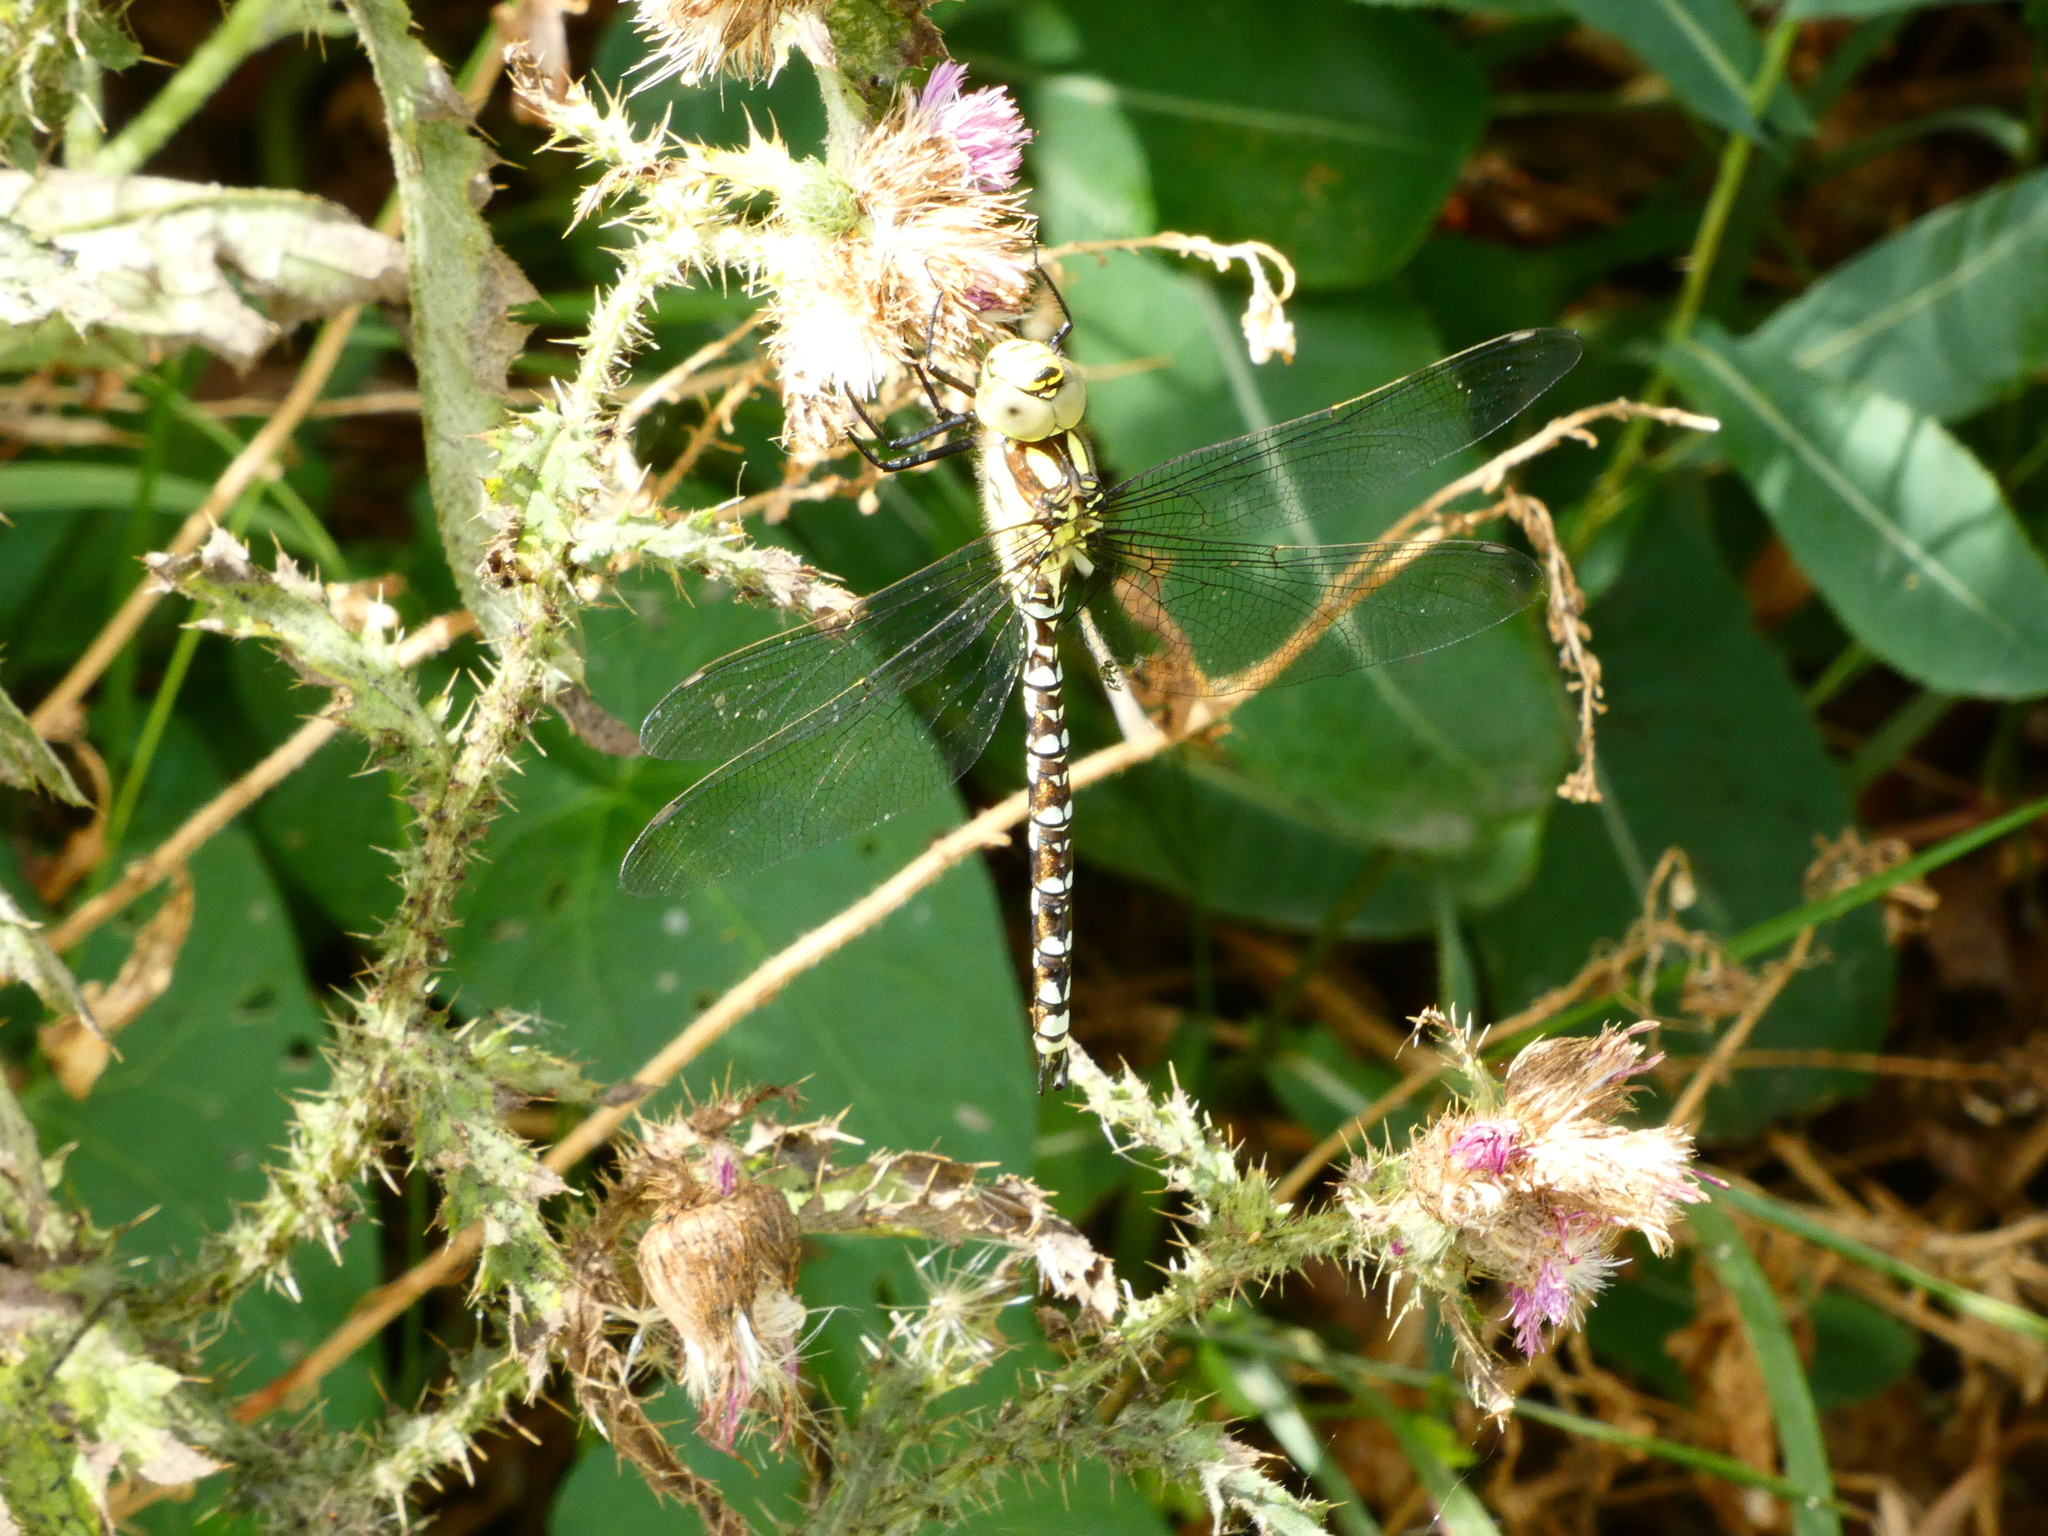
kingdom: Animalia
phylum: Arthropoda
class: Insecta
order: Odonata
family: Aeshnidae
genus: Aeshna
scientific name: Aeshna cyanea
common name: Southern hawker
